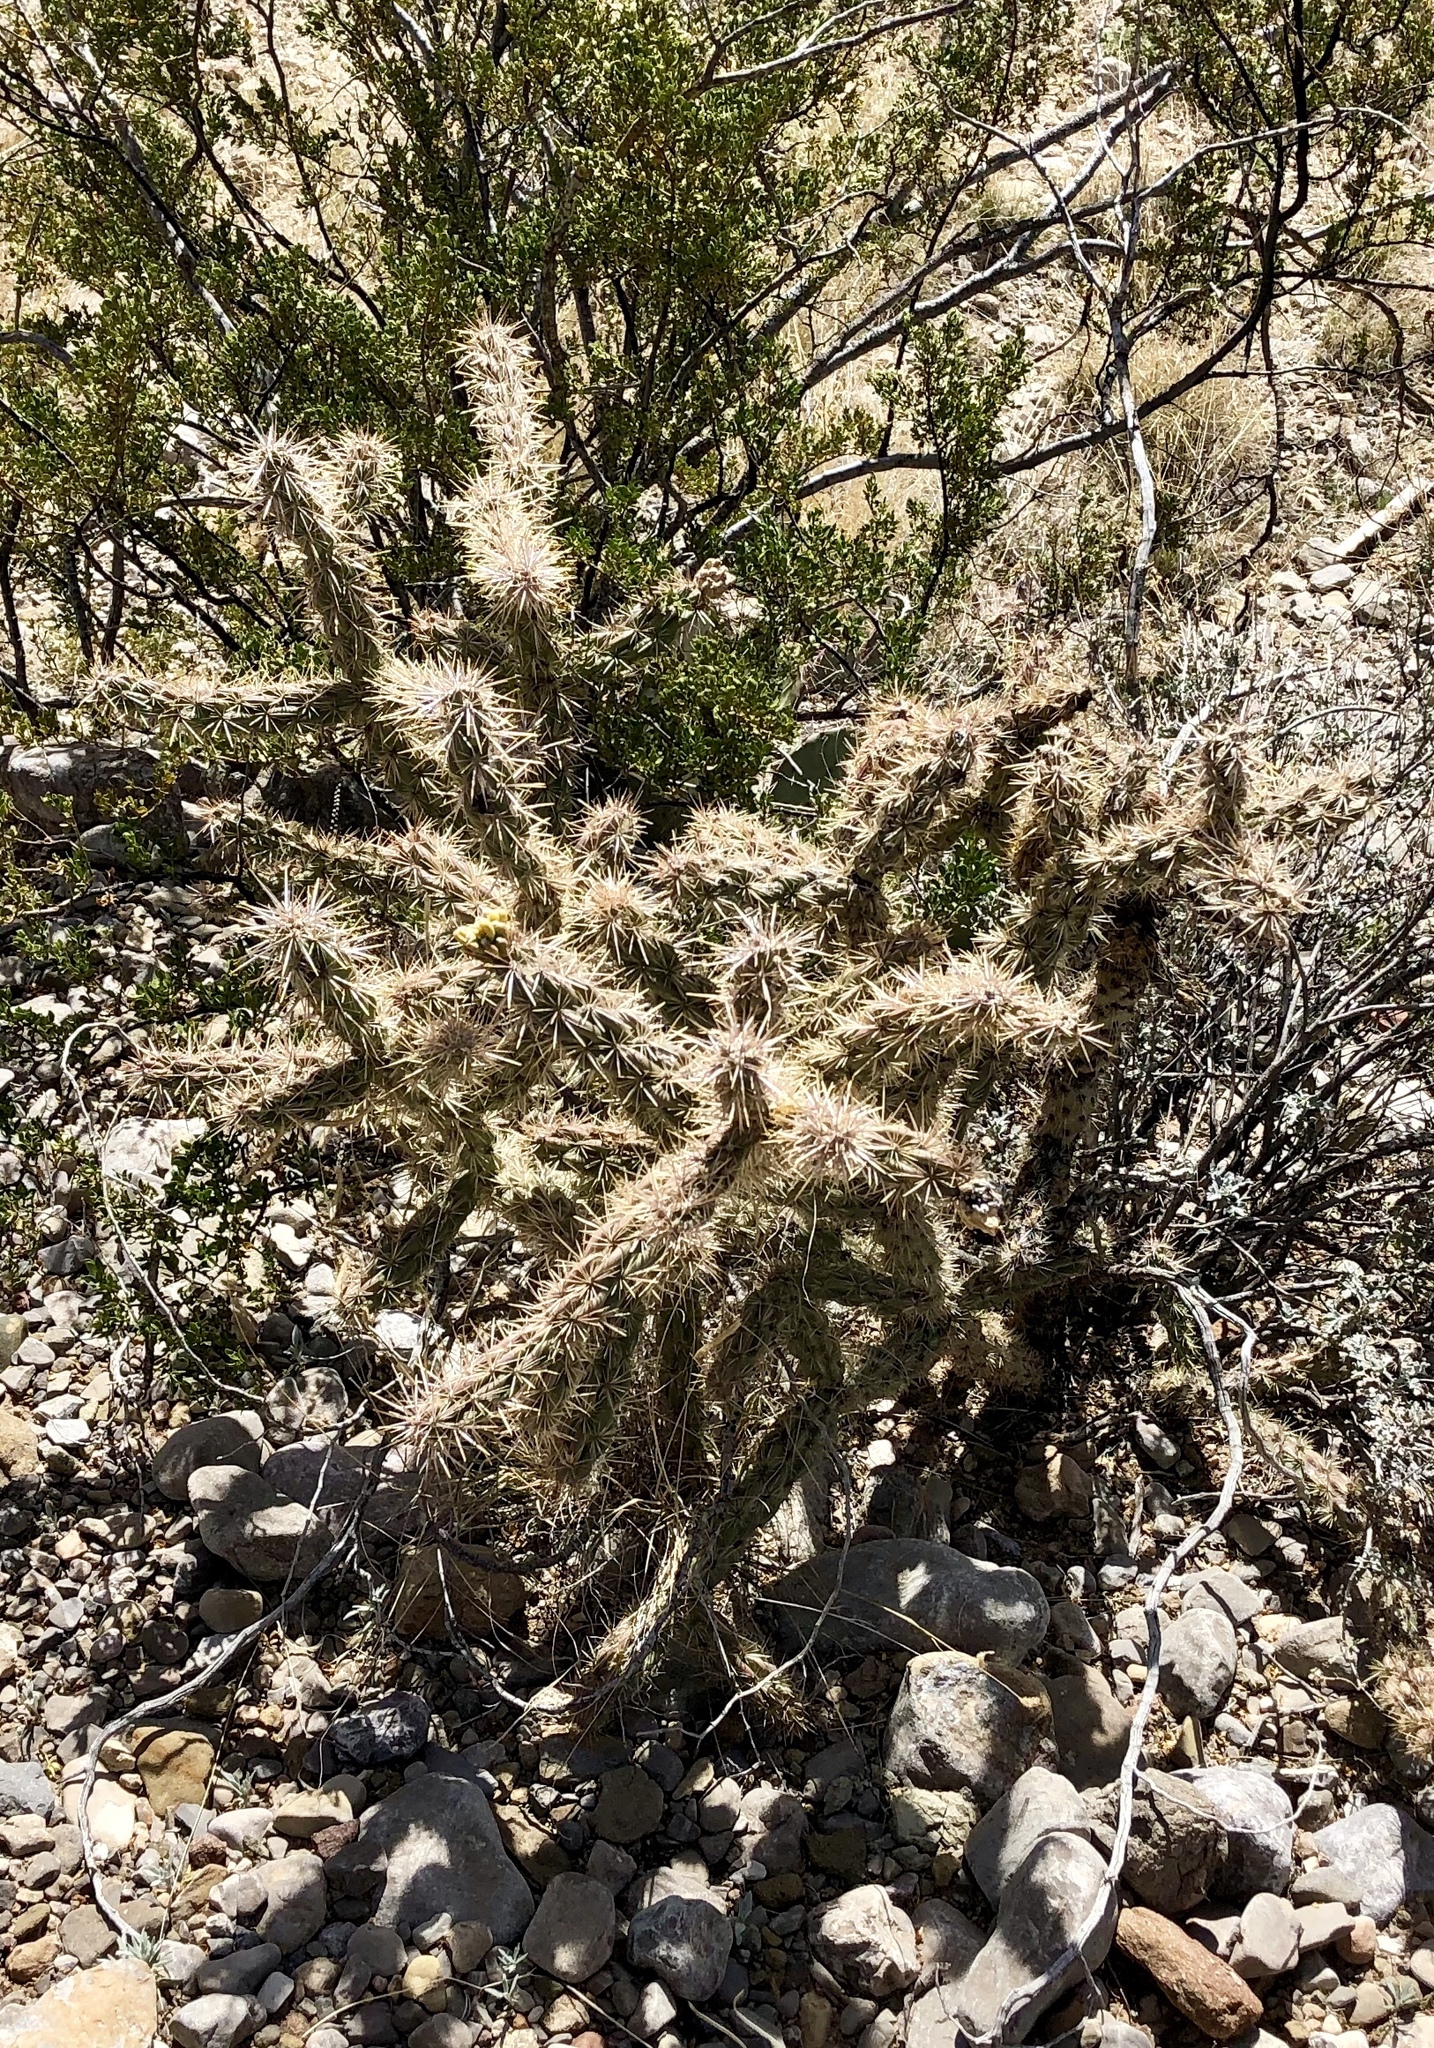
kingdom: Plantae
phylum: Tracheophyta
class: Magnoliopsida
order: Caryophyllales
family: Cactaceae
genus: Cylindropuntia
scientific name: Cylindropuntia imbricata
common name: Candelabrum cactus
